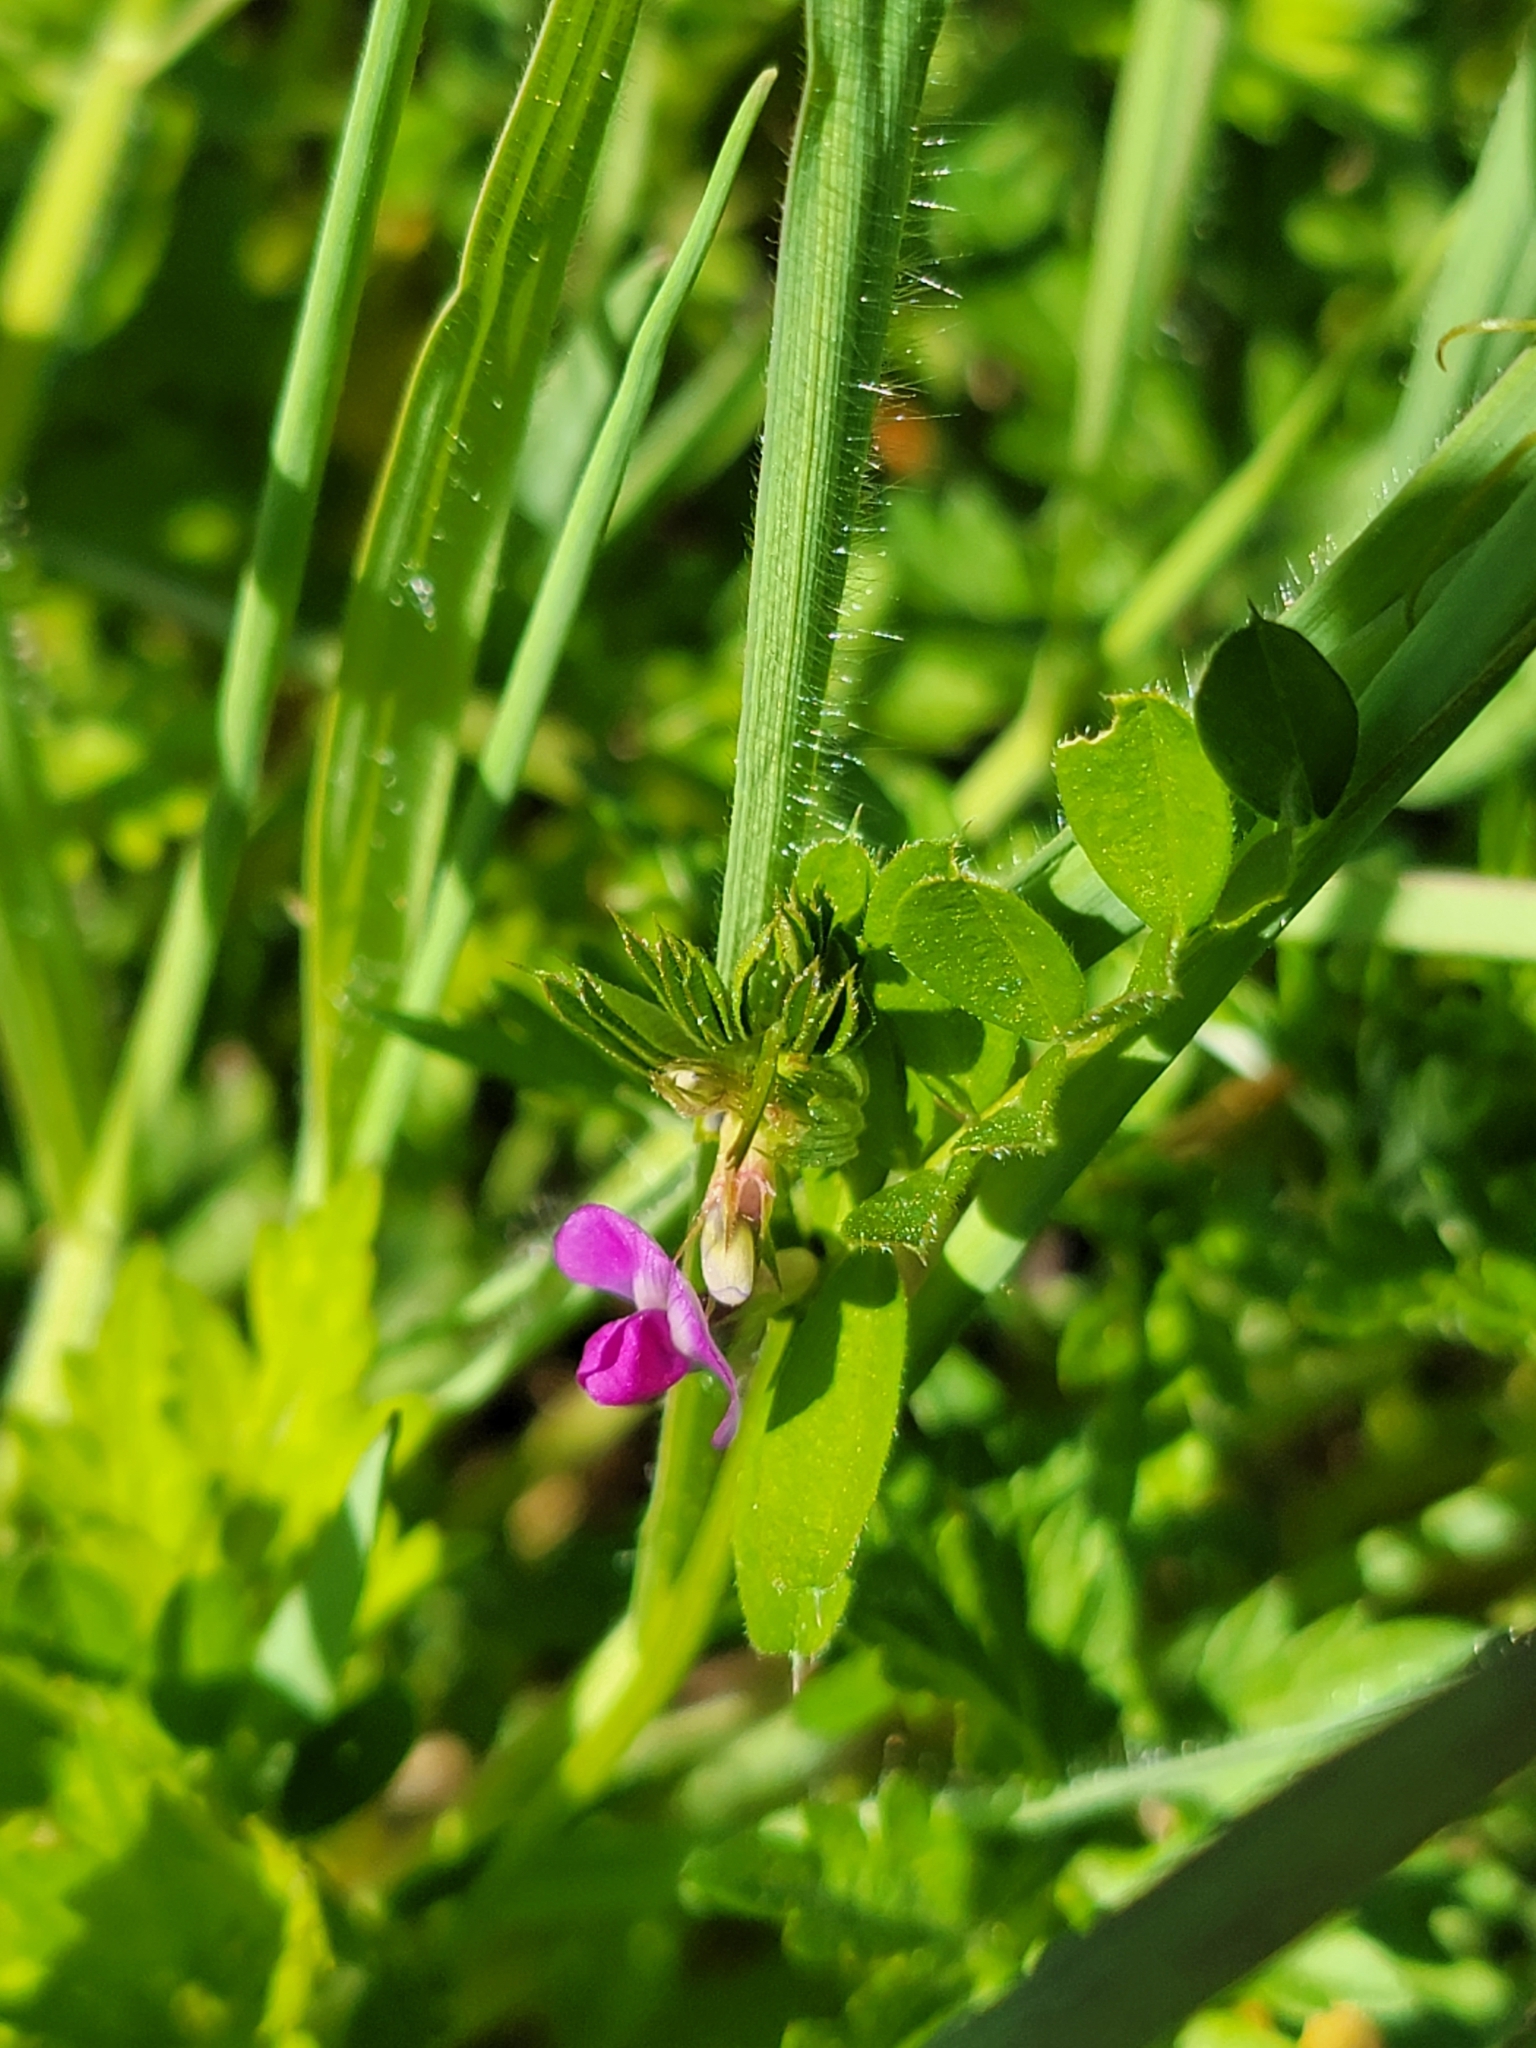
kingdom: Plantae
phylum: Tracheophyta
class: Magnoliopsida
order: Fabales
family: Fabaceae
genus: Vicia
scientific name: Vicia sativa
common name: Garden vetch
